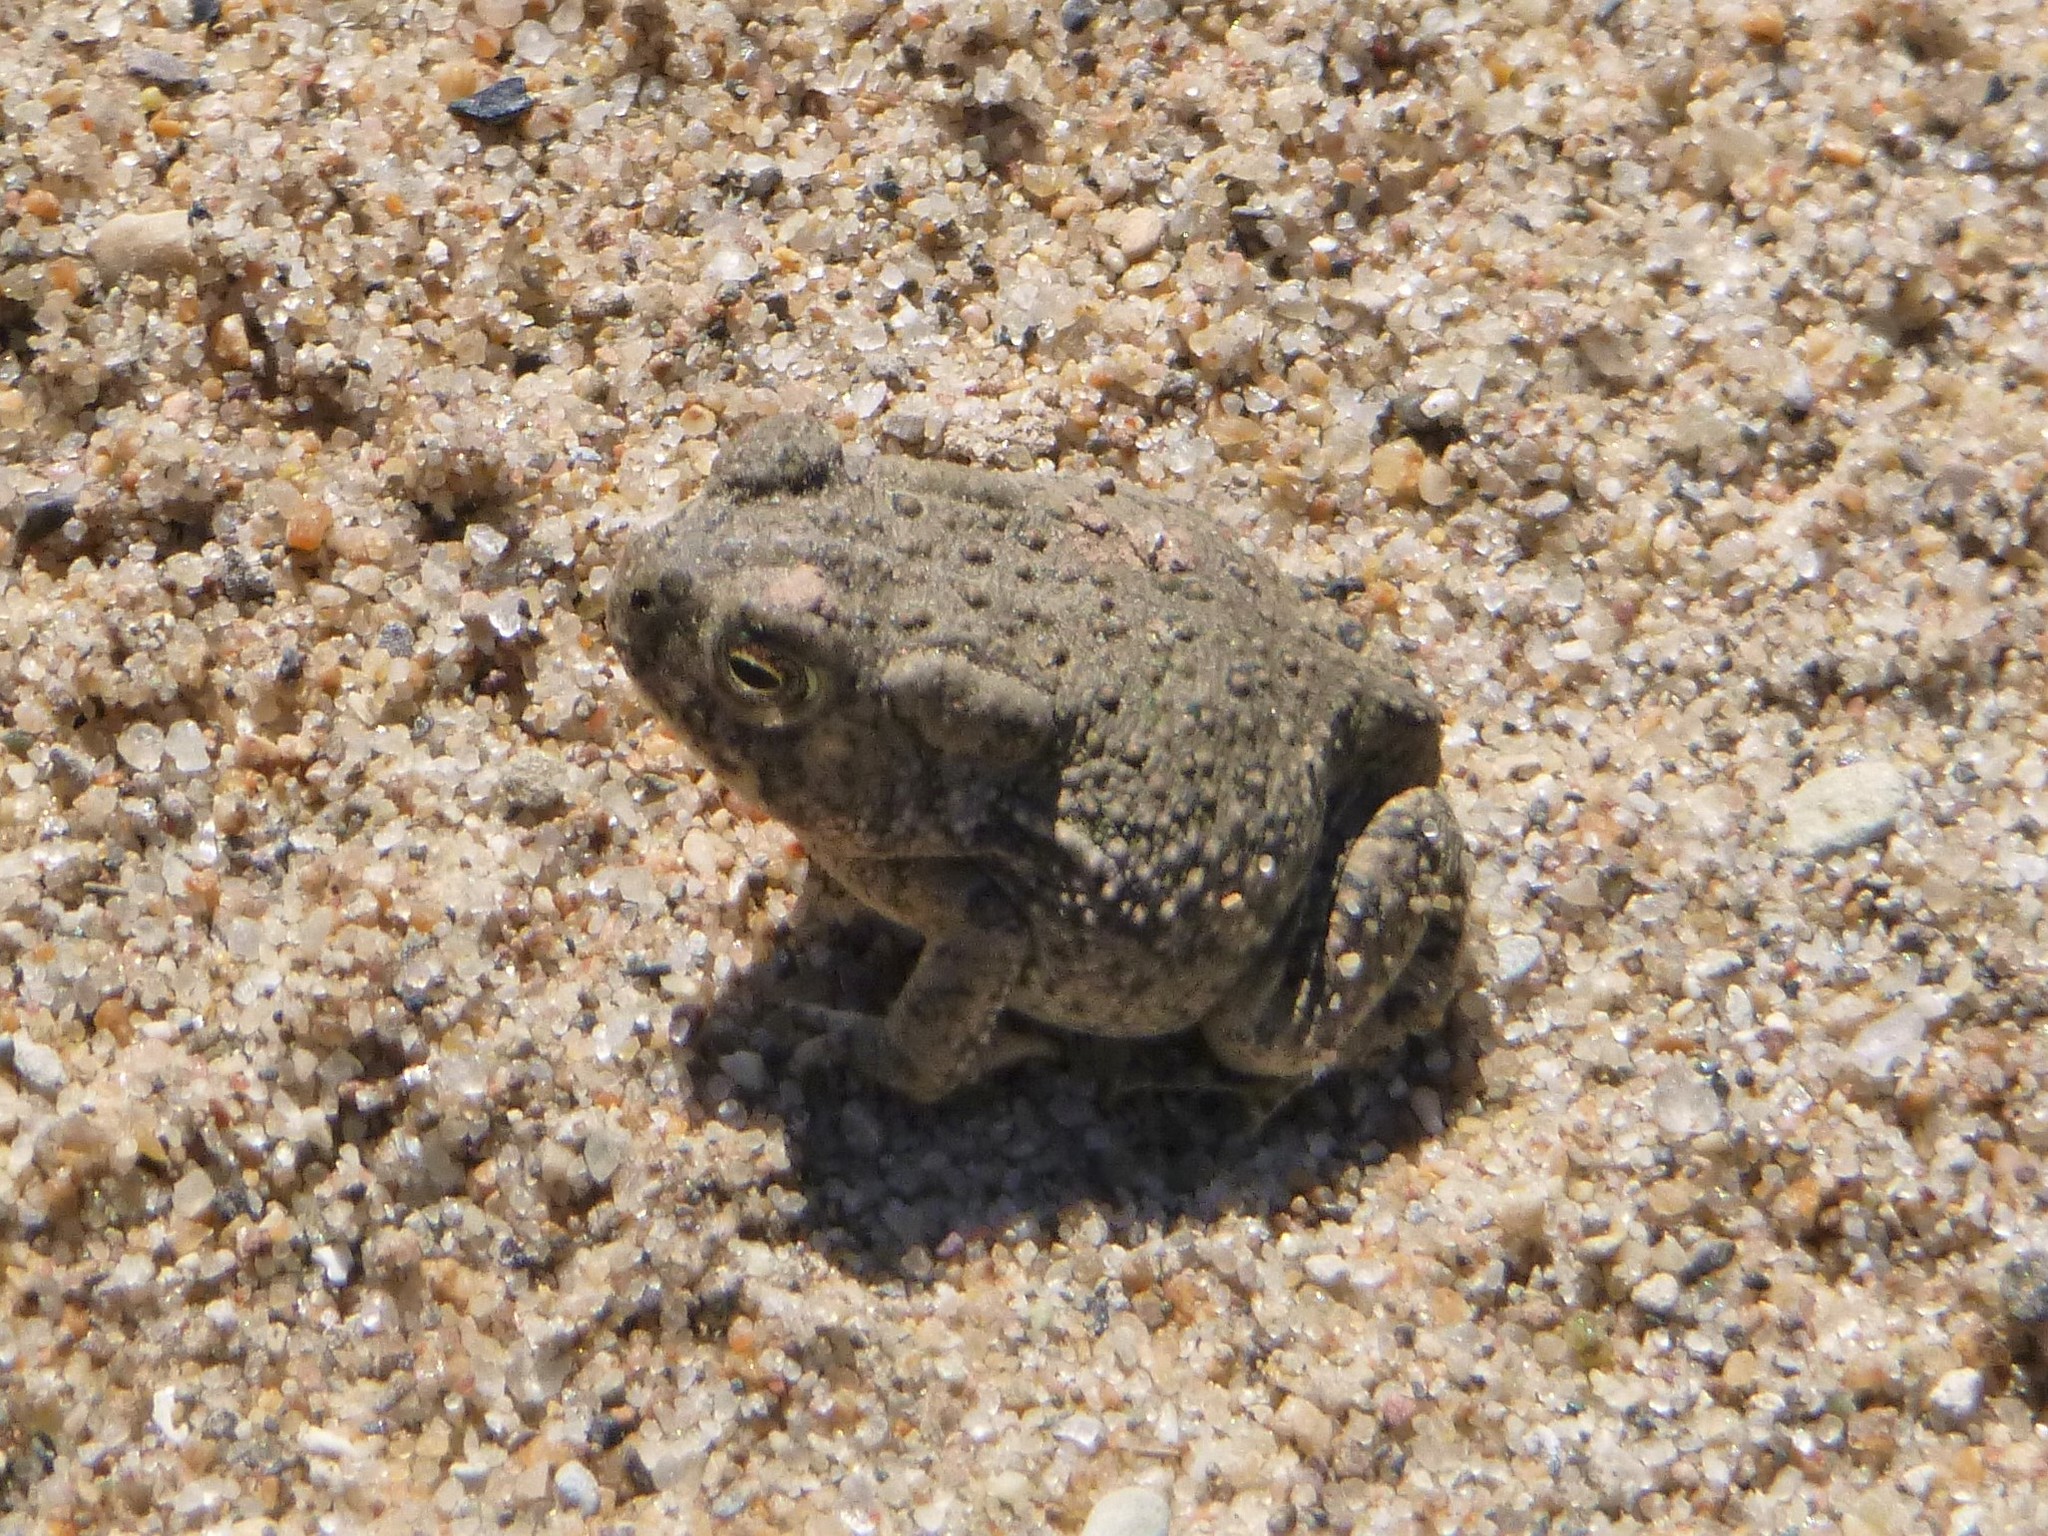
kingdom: Animalia
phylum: Chordata
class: Amphibia
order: Anura
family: Bufonidae
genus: Anaxyrus
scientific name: Anaxyrus woodhousii
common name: Woodhouse's toad
